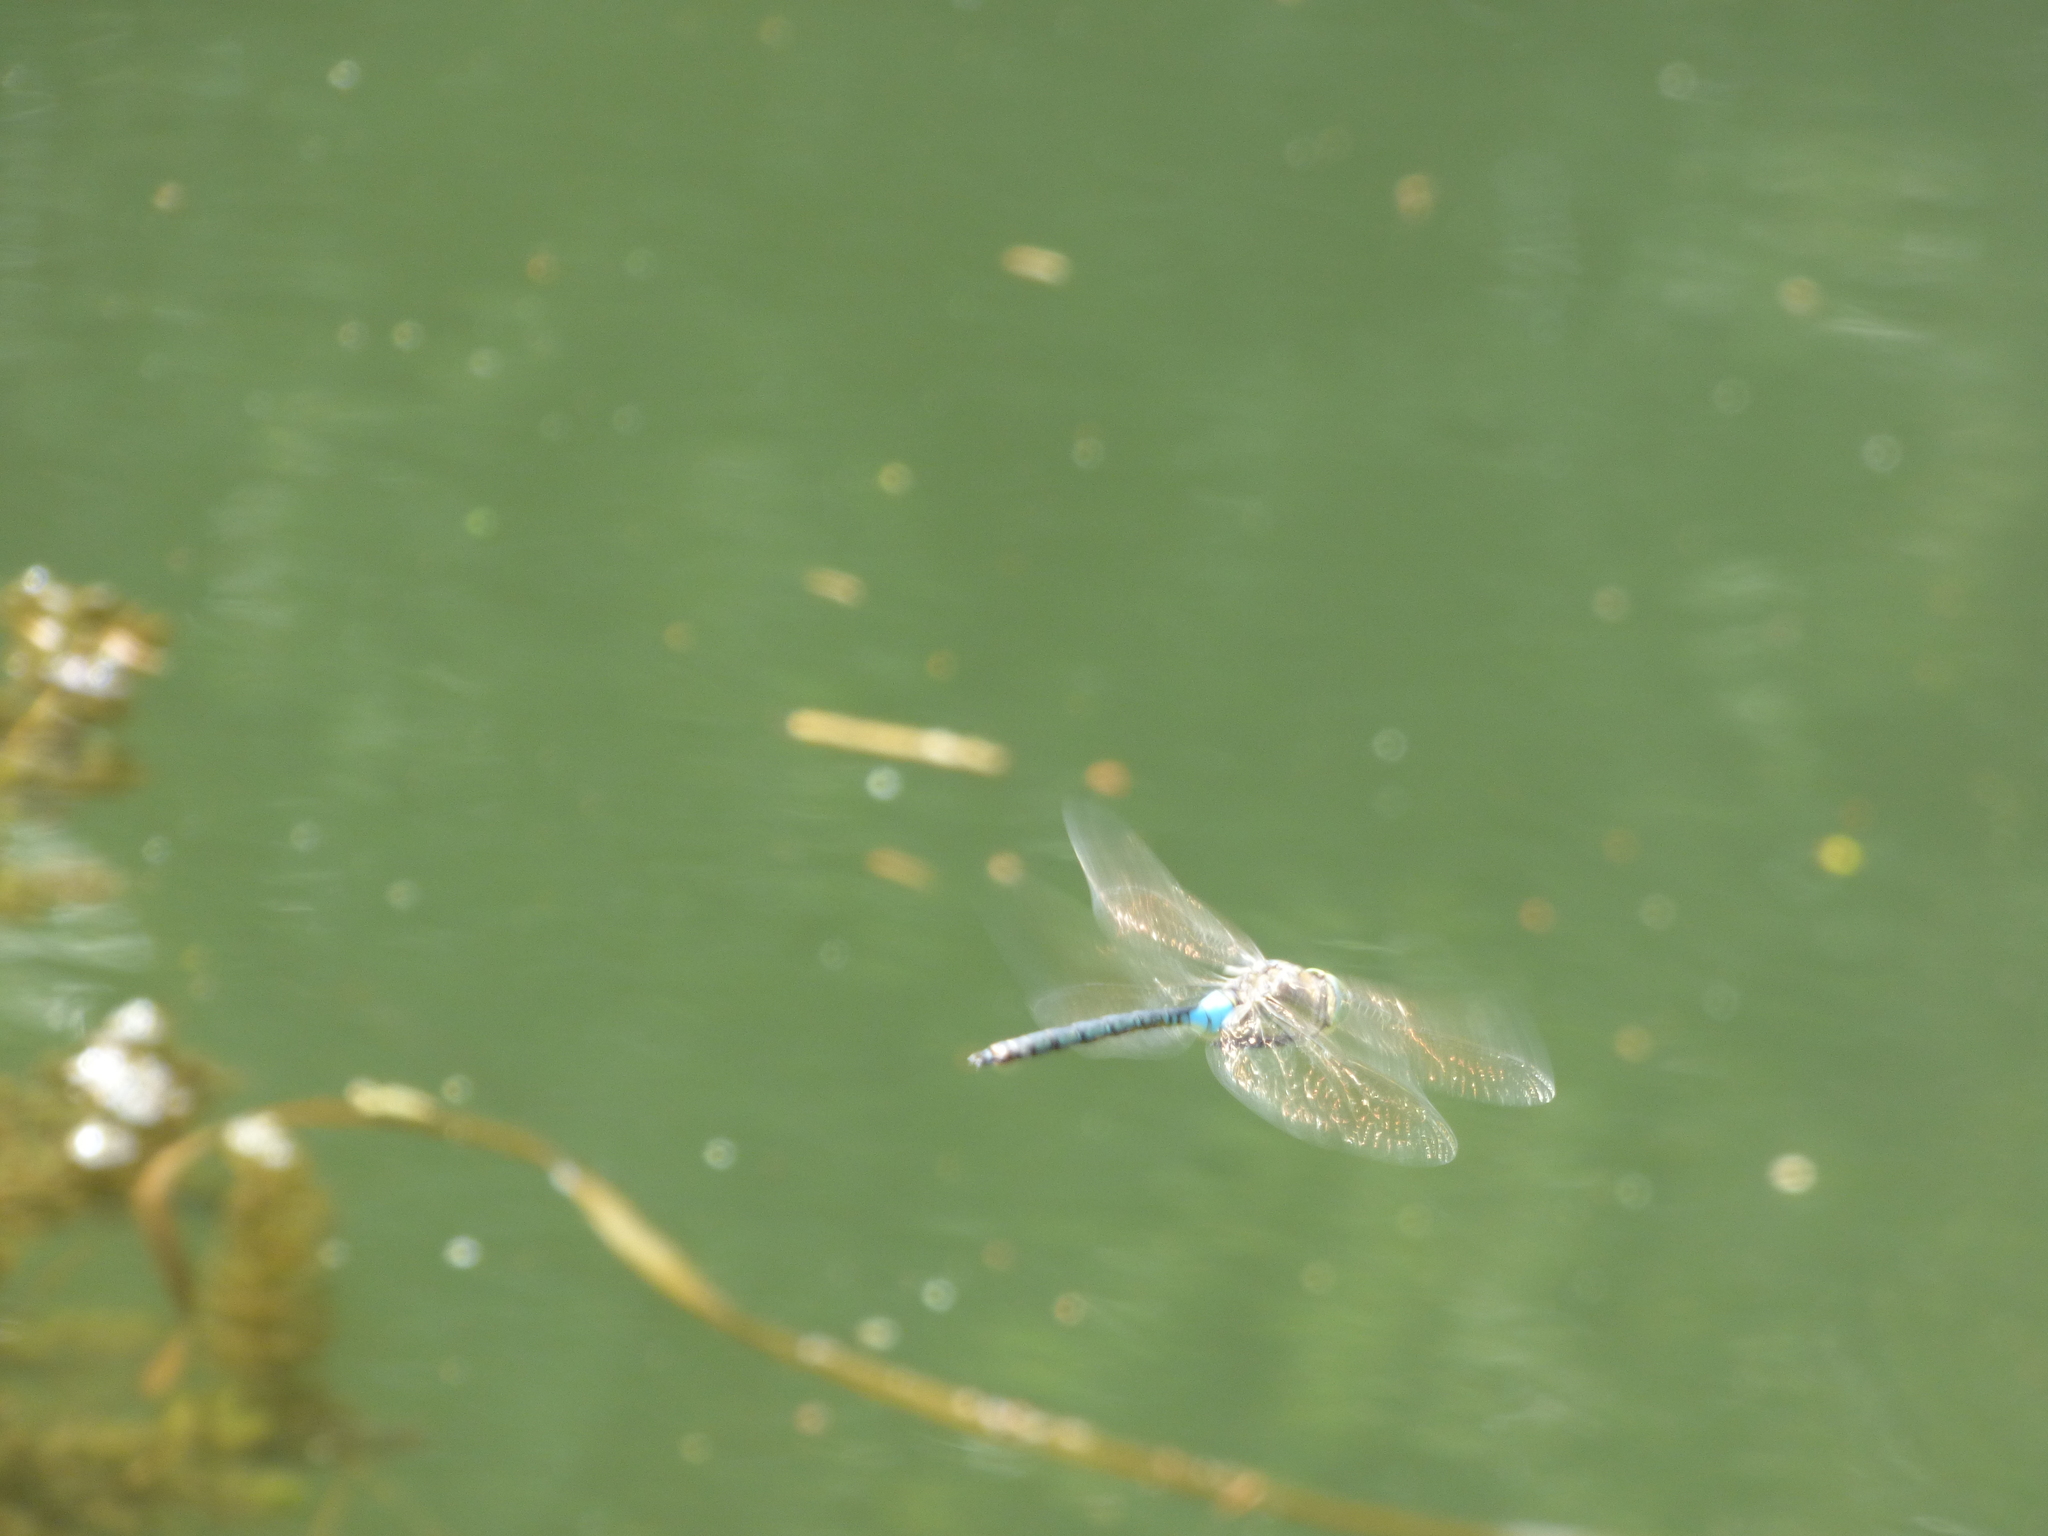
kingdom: Animalia
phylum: Arthropoda
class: Insecta
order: Odonata
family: Aeshnidae
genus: Anax
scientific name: Anax parthenope
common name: Lesser emperor
